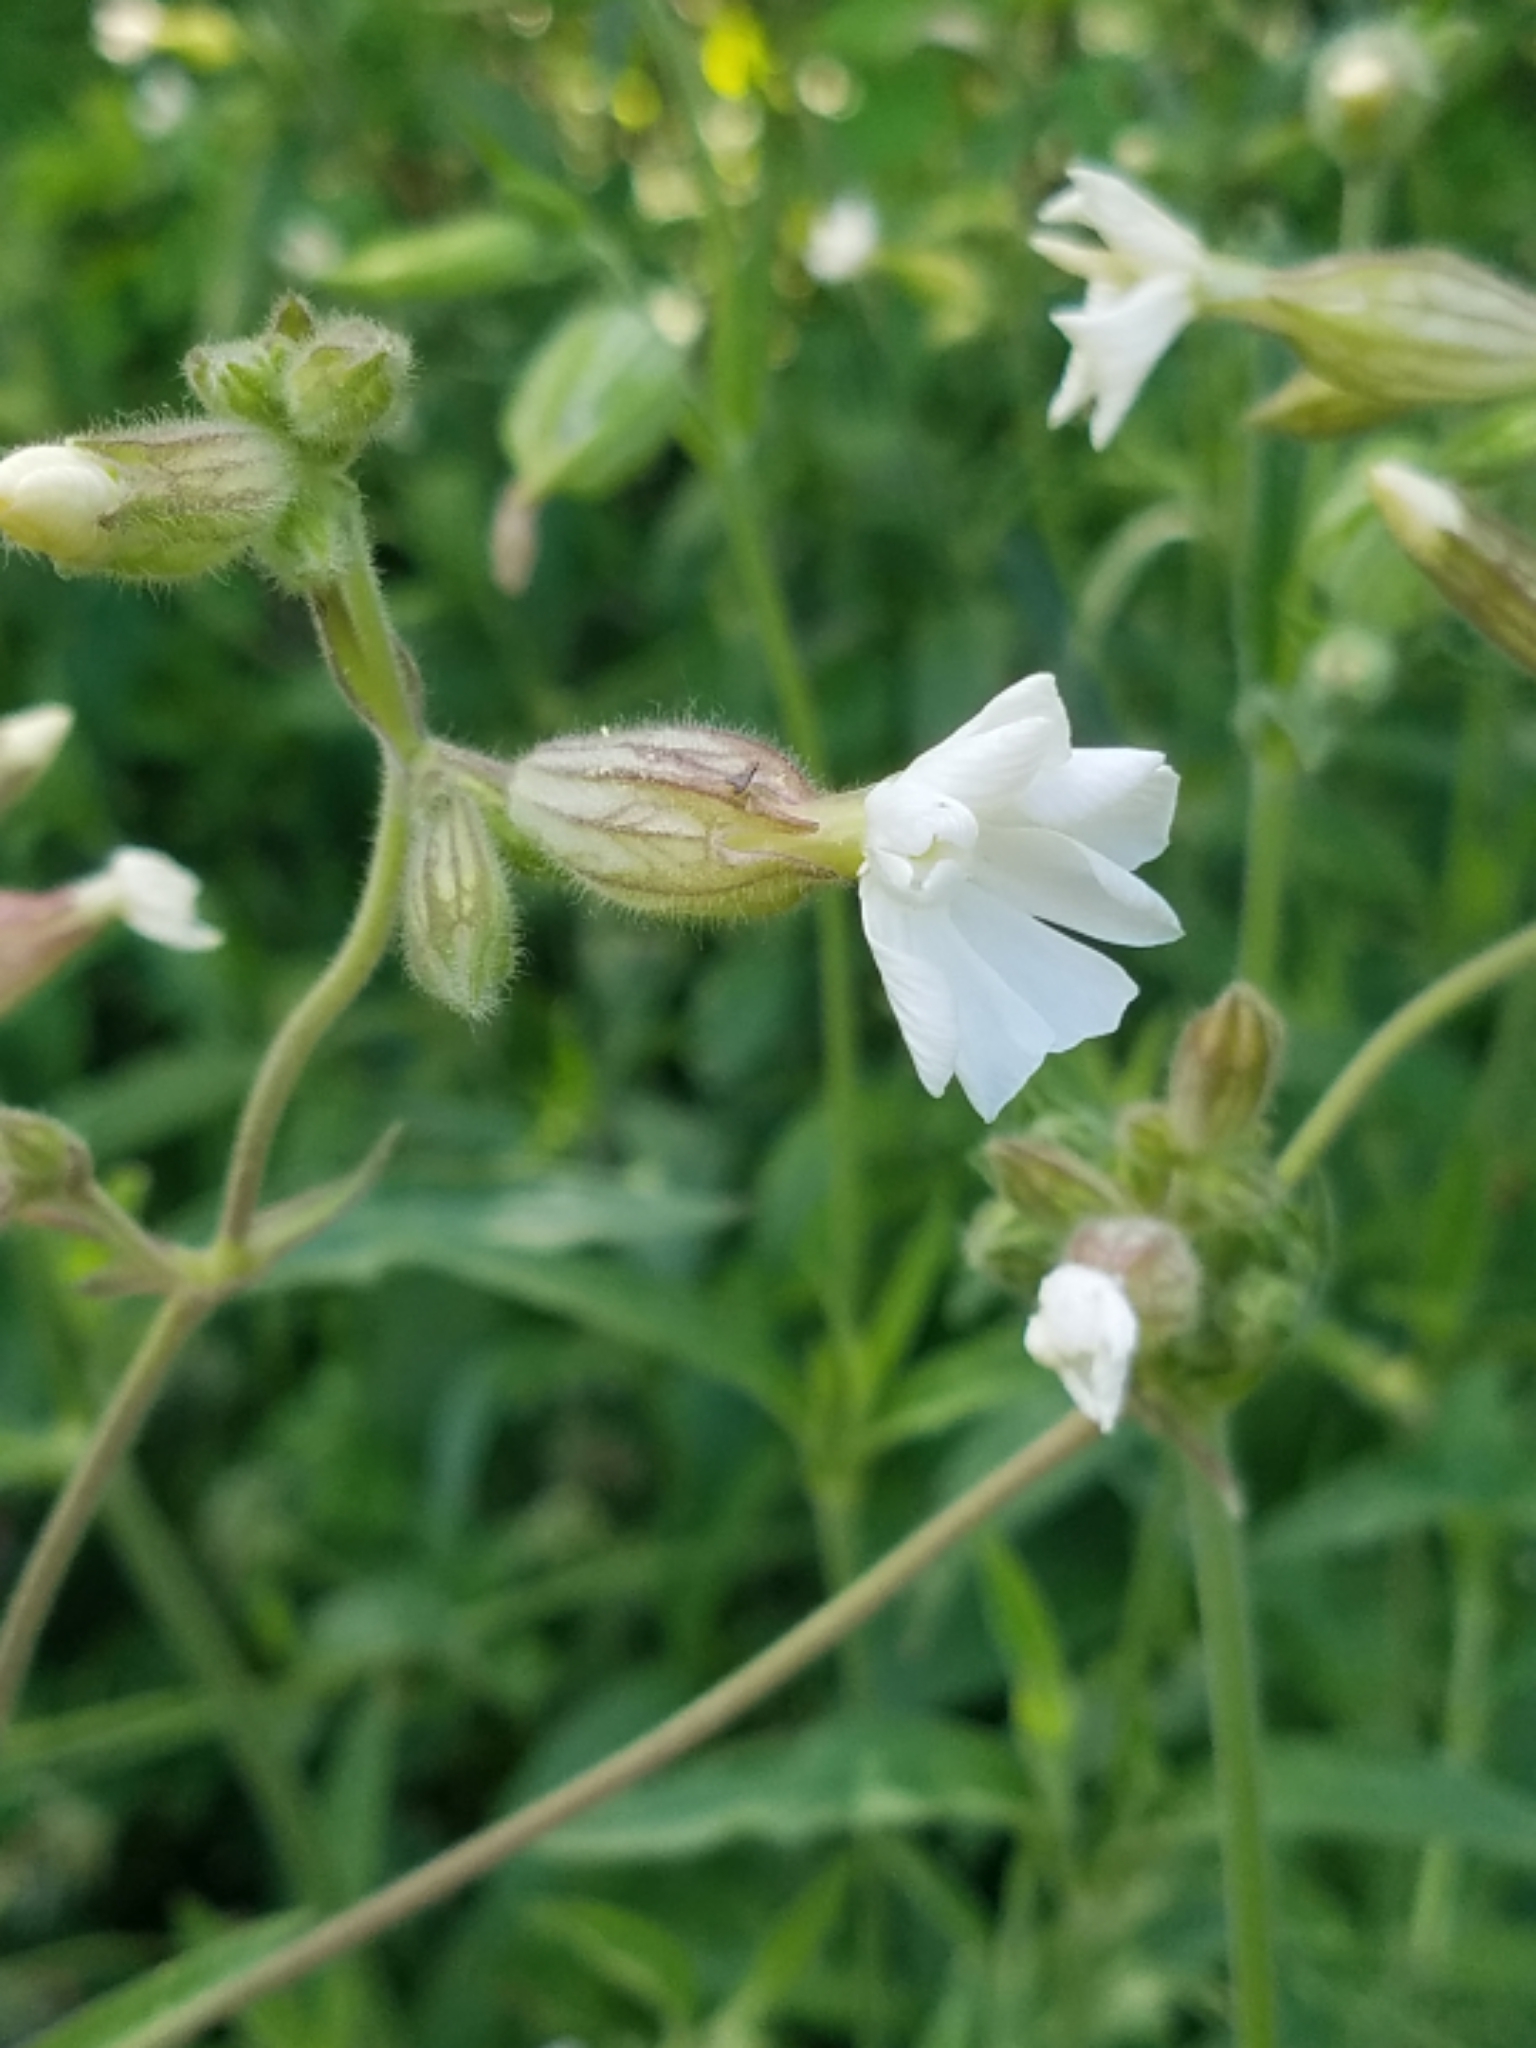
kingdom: Plantae
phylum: Tracheophyta
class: Magnoliopsida
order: Caryophyllales
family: Caryophyllaceae
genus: Silene
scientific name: Silene latifolia
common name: White campion
